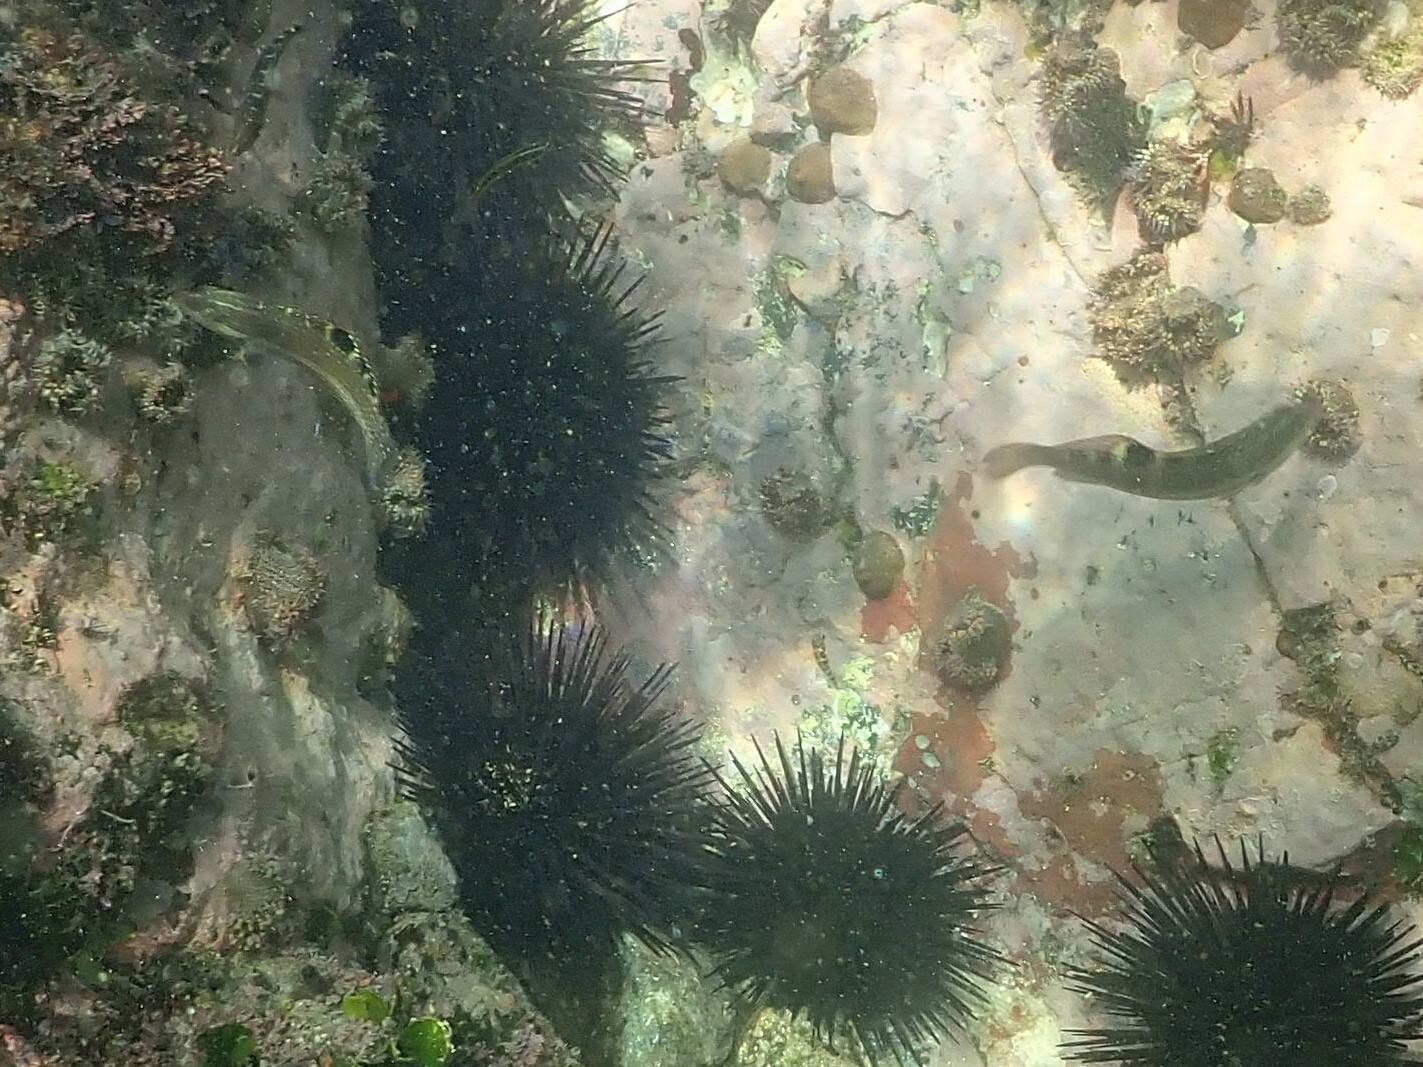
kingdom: Animalia
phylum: Chordata
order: Perciformes
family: Labridae
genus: Halichoeres
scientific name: Halichoeres notospilus
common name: Banded wrasse
